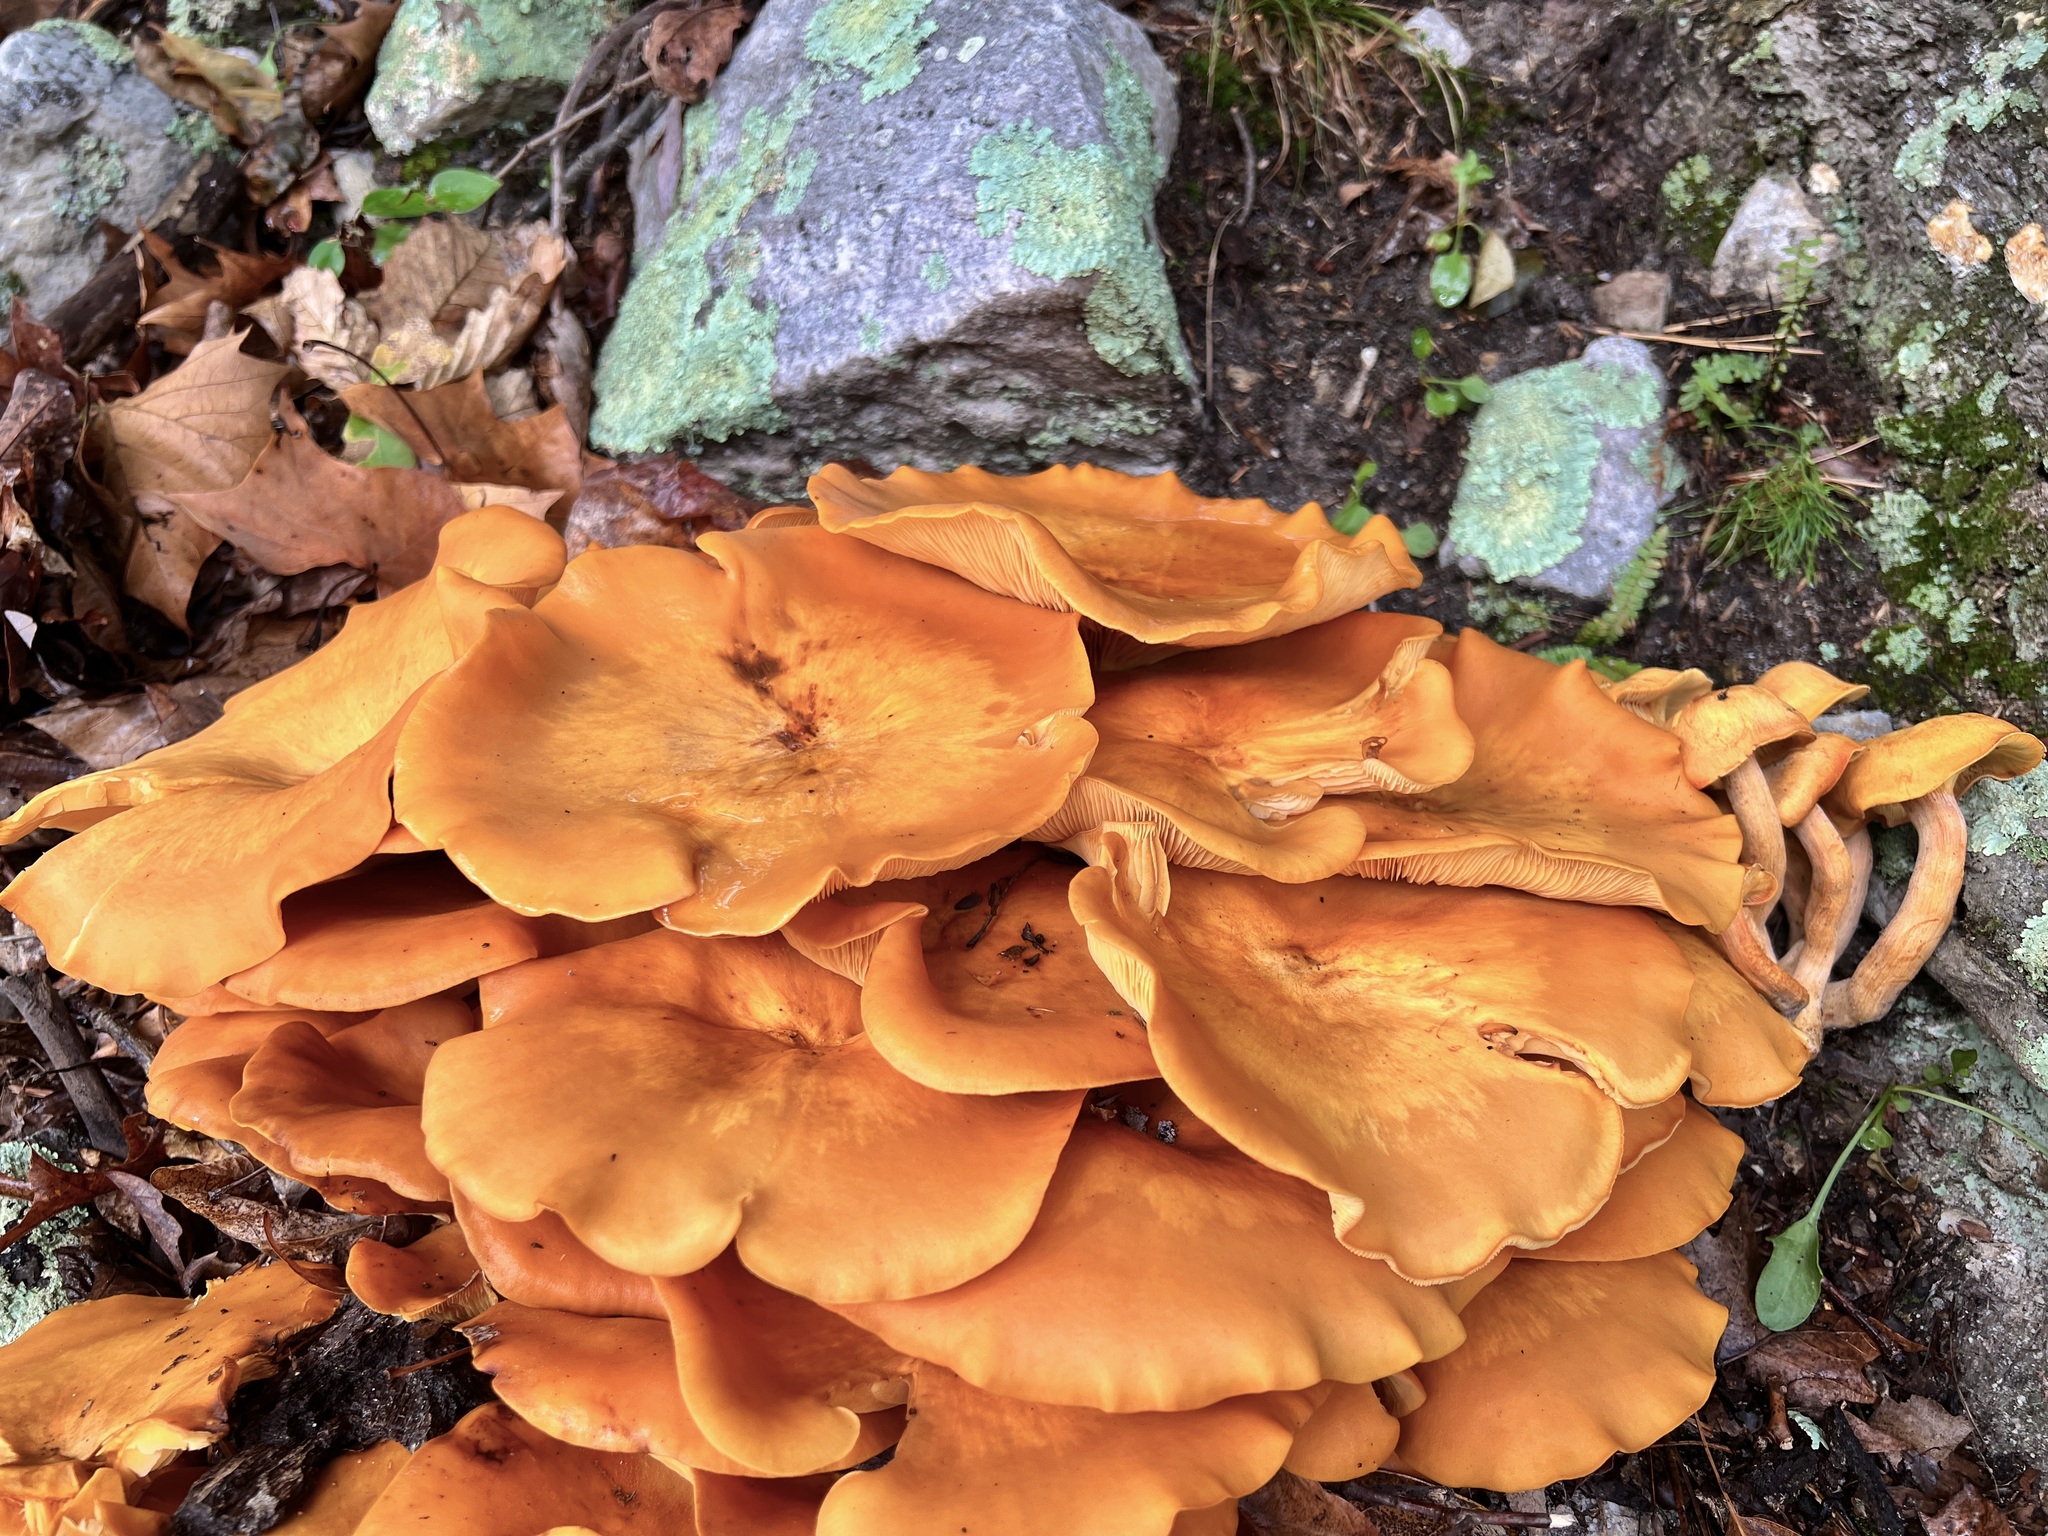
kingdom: Fungi
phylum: Basidiomycota
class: Agaricomycetes
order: Agaricales
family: Omphalotaceae
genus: Omphalotus
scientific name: Omphalotus illudens
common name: Jack o lantern
